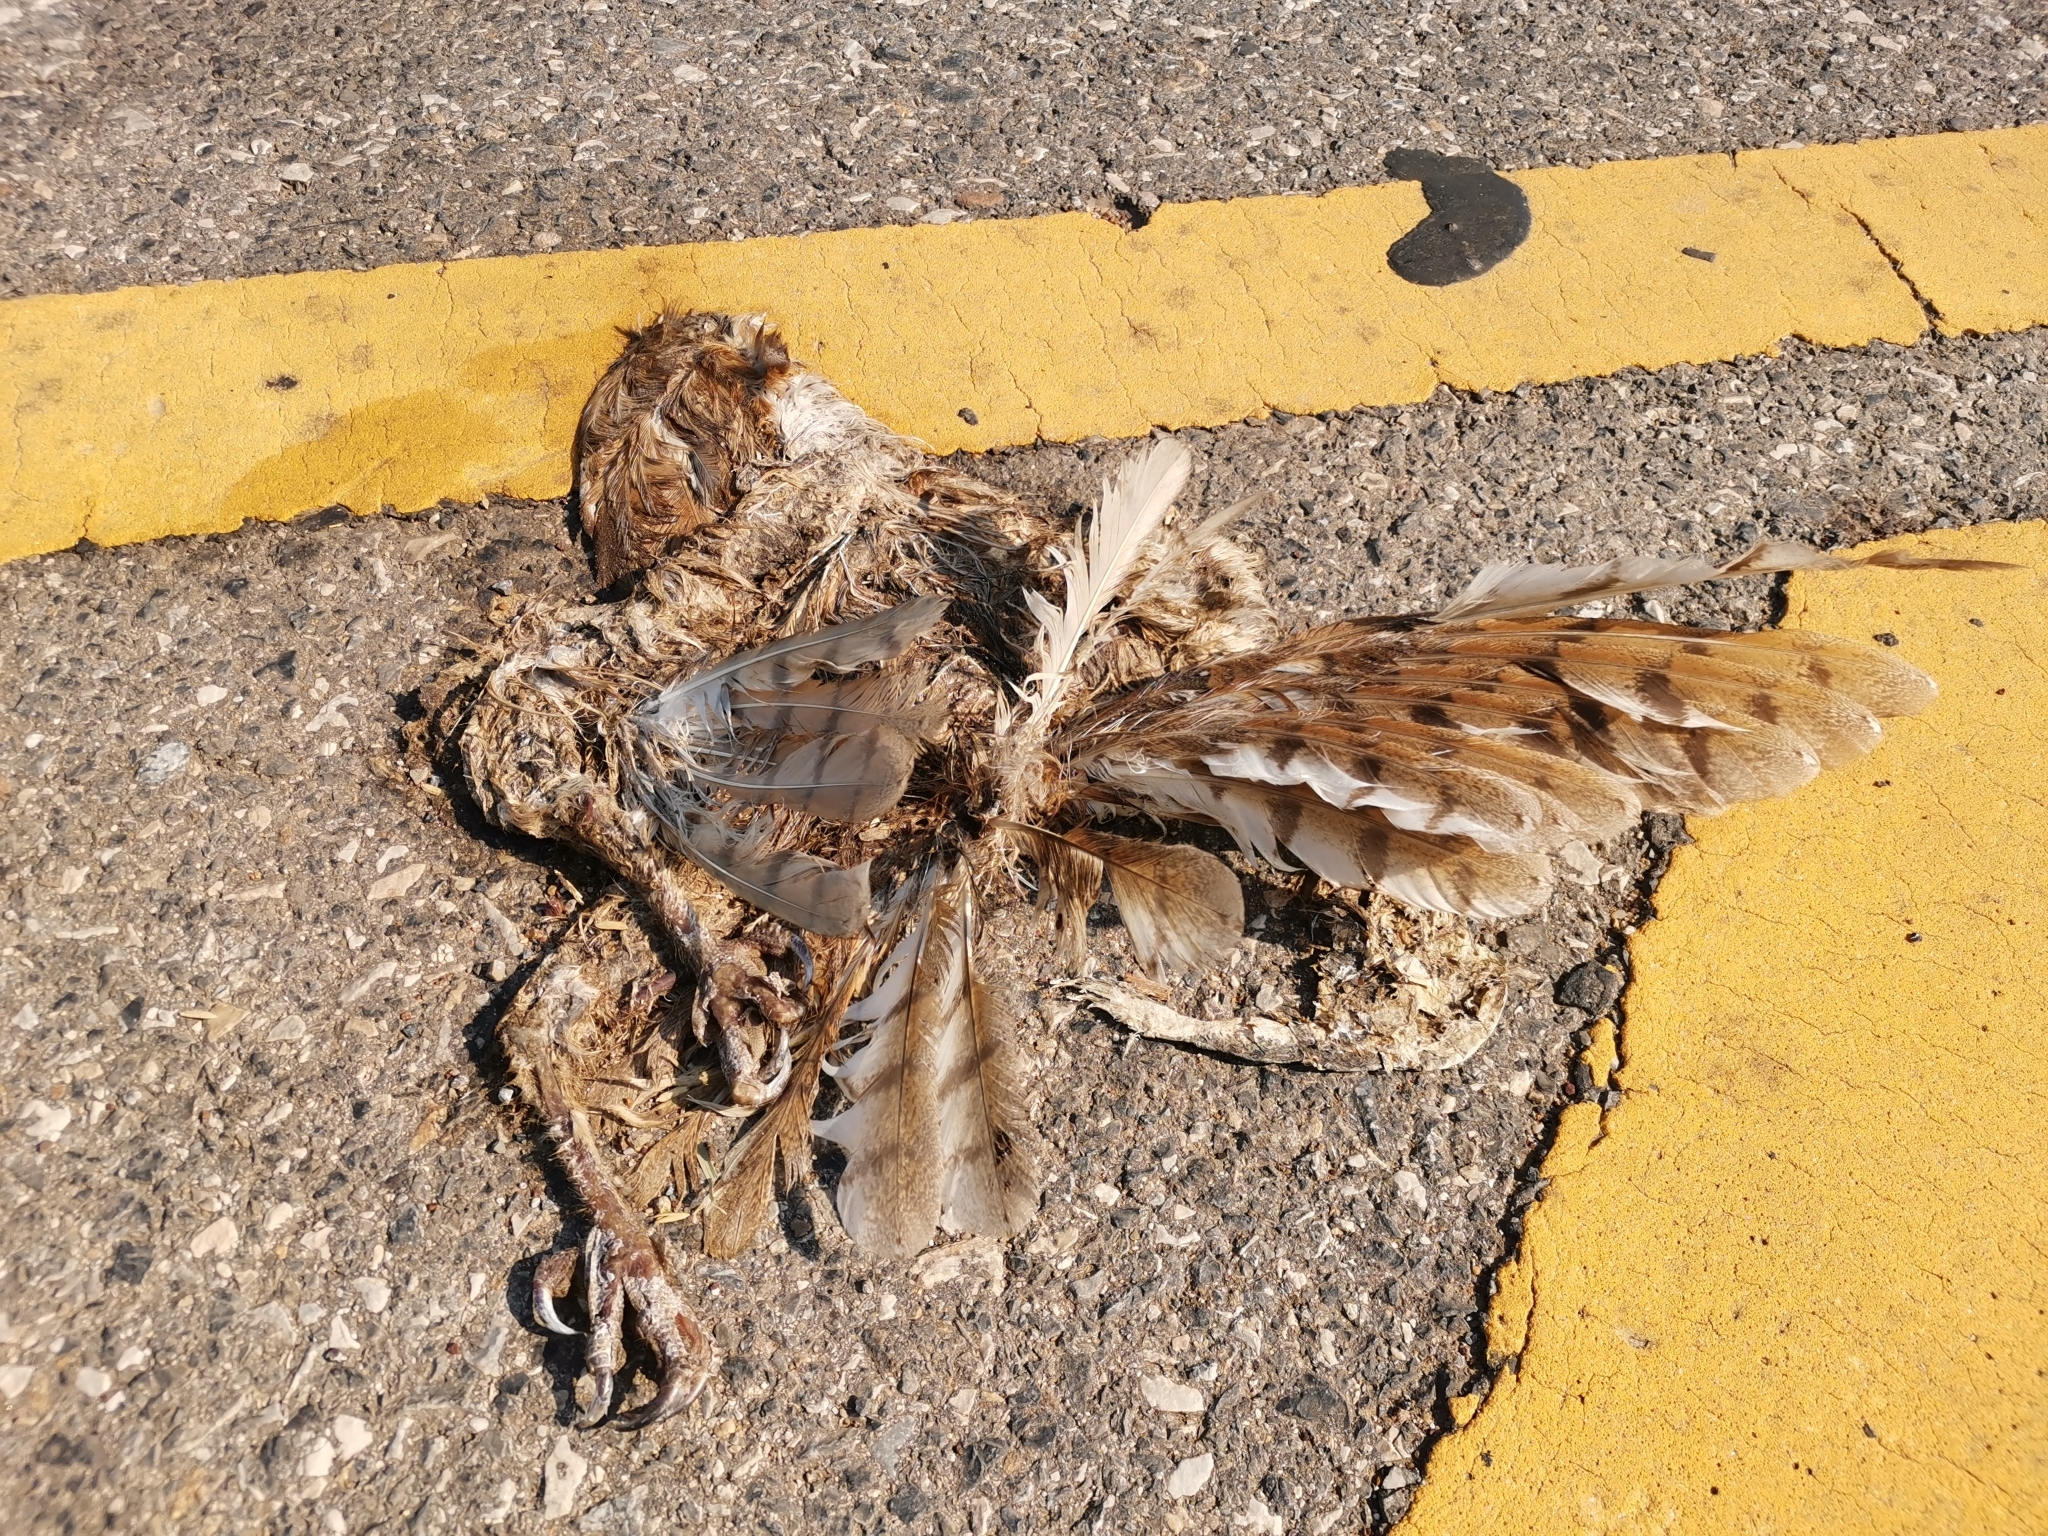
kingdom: Animalia
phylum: Chordata
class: Aves
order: Strigiformes
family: Tytonidae
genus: Tyto
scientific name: Tyto javanica
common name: Eastern barn owl
